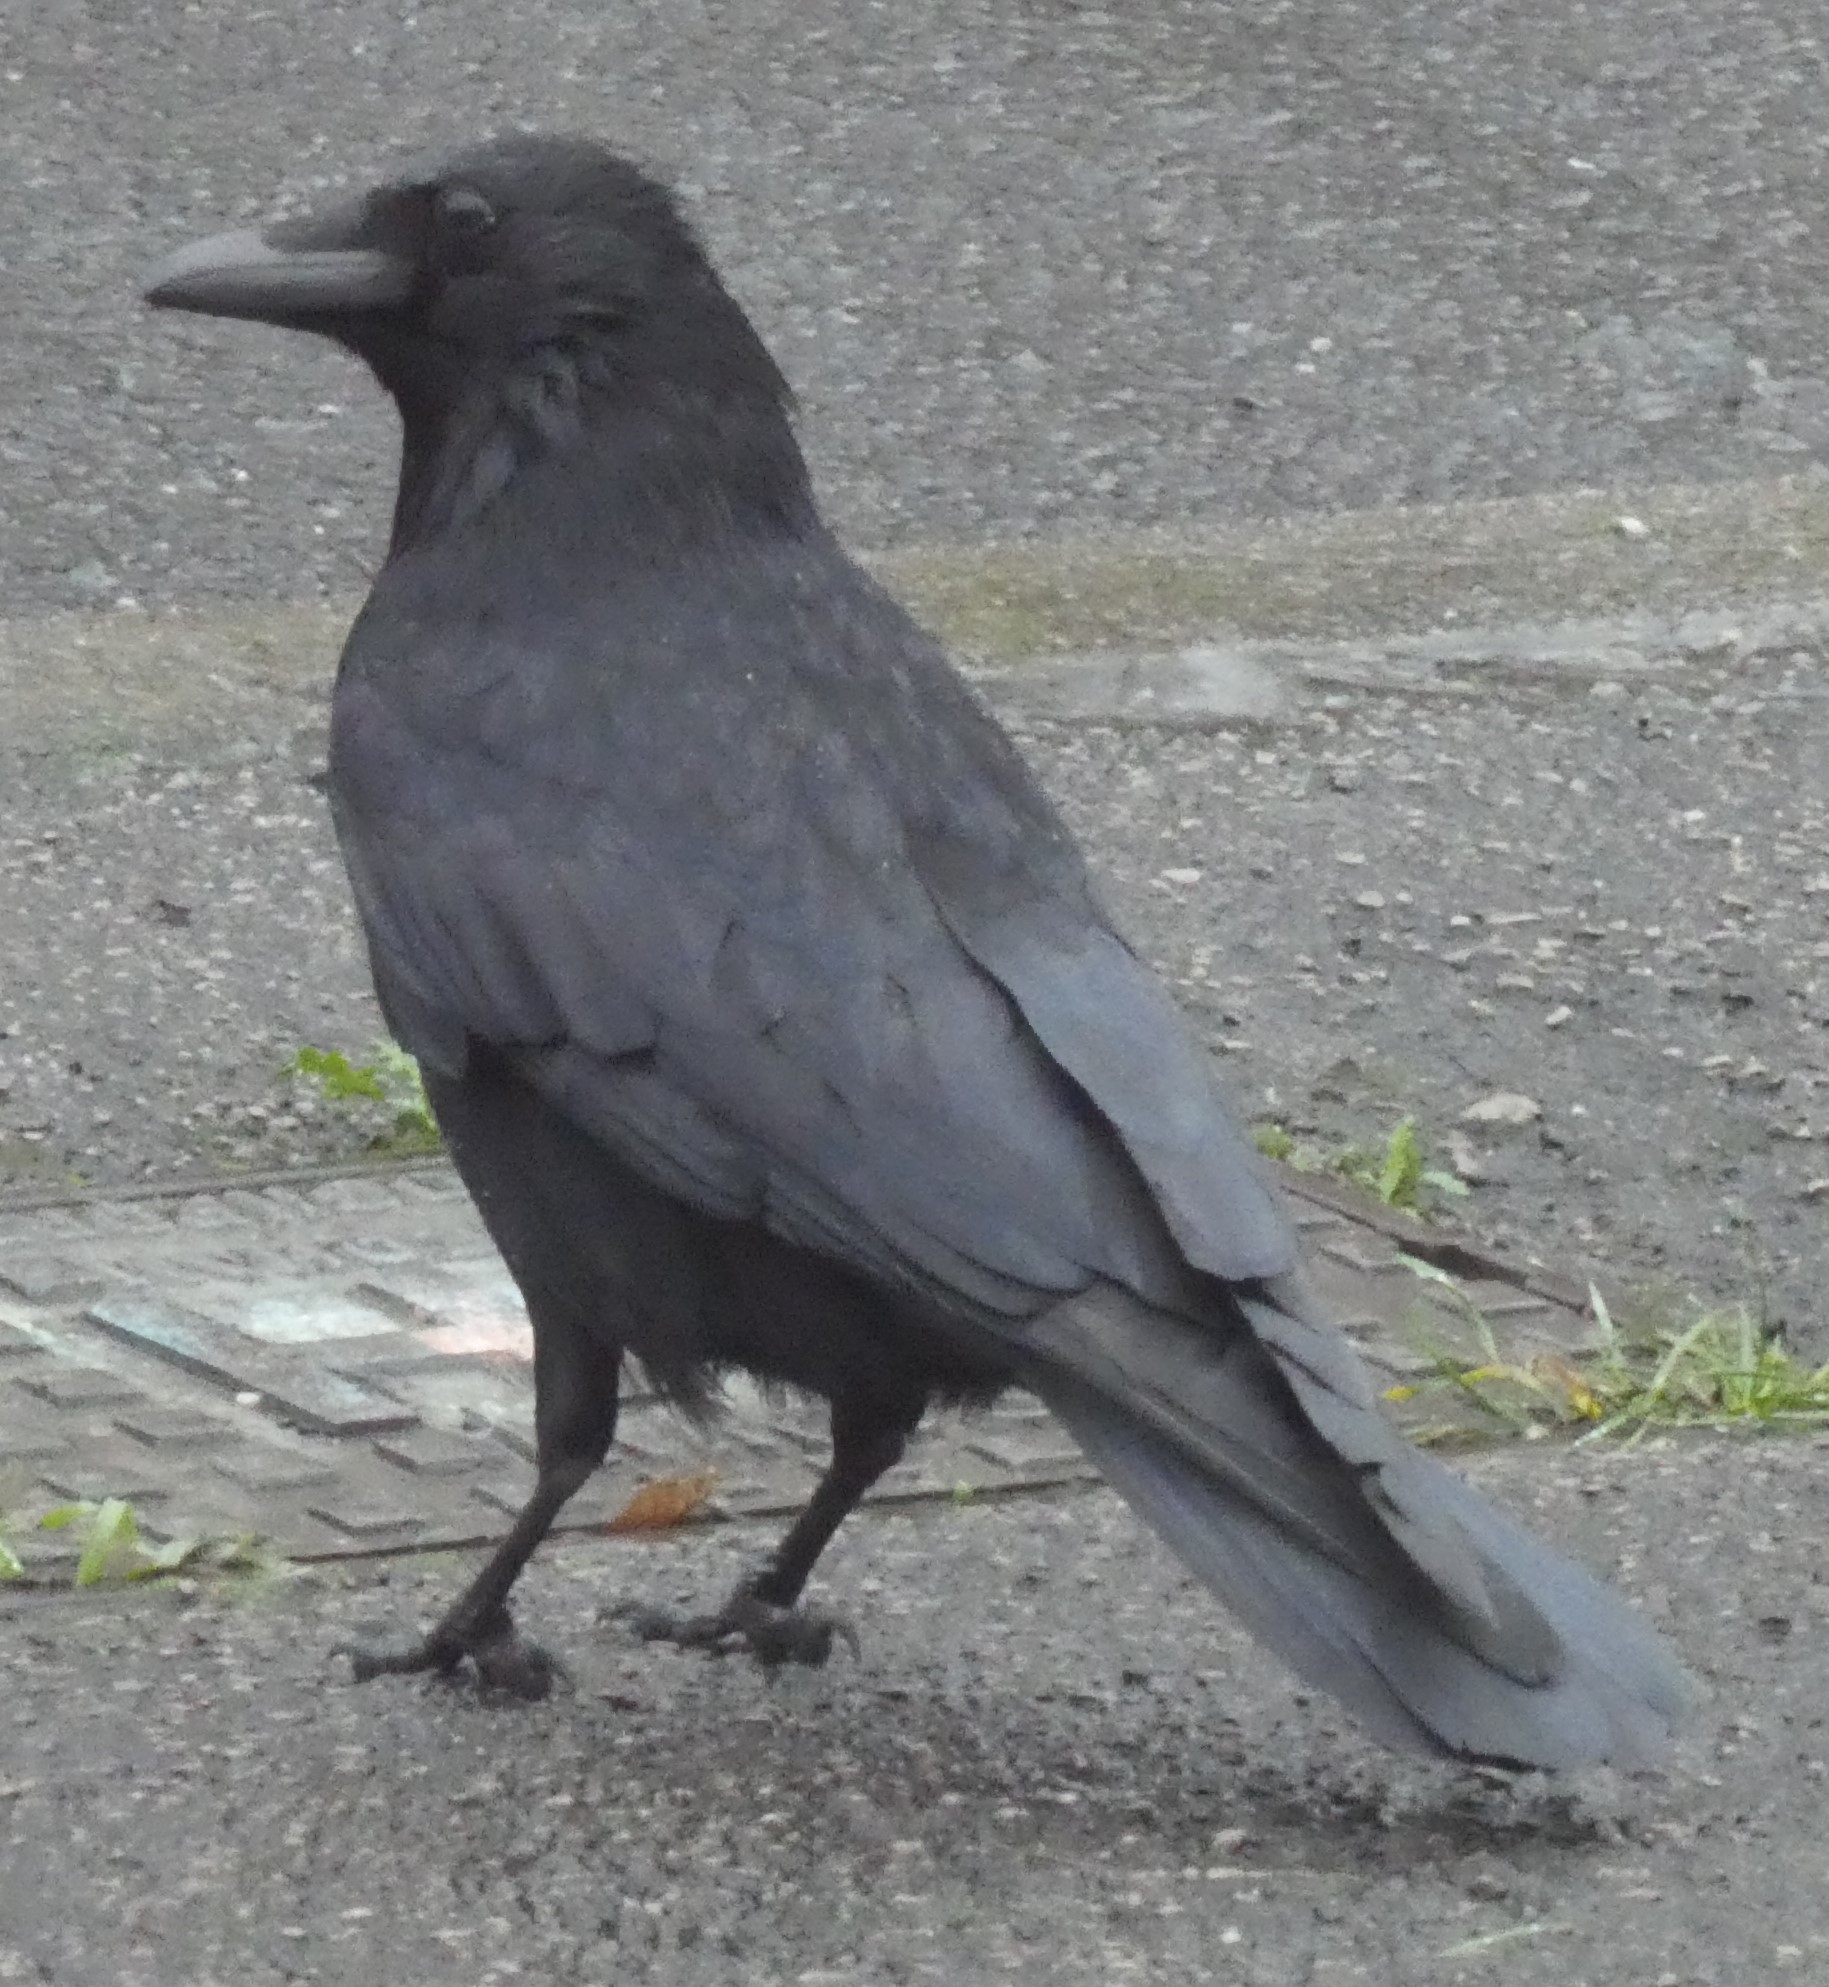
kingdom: Animalia
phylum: Chordata
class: Aves
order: Passeriformes
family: Corvidae
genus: Corvus
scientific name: Corvus corone
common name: Carrion crow
